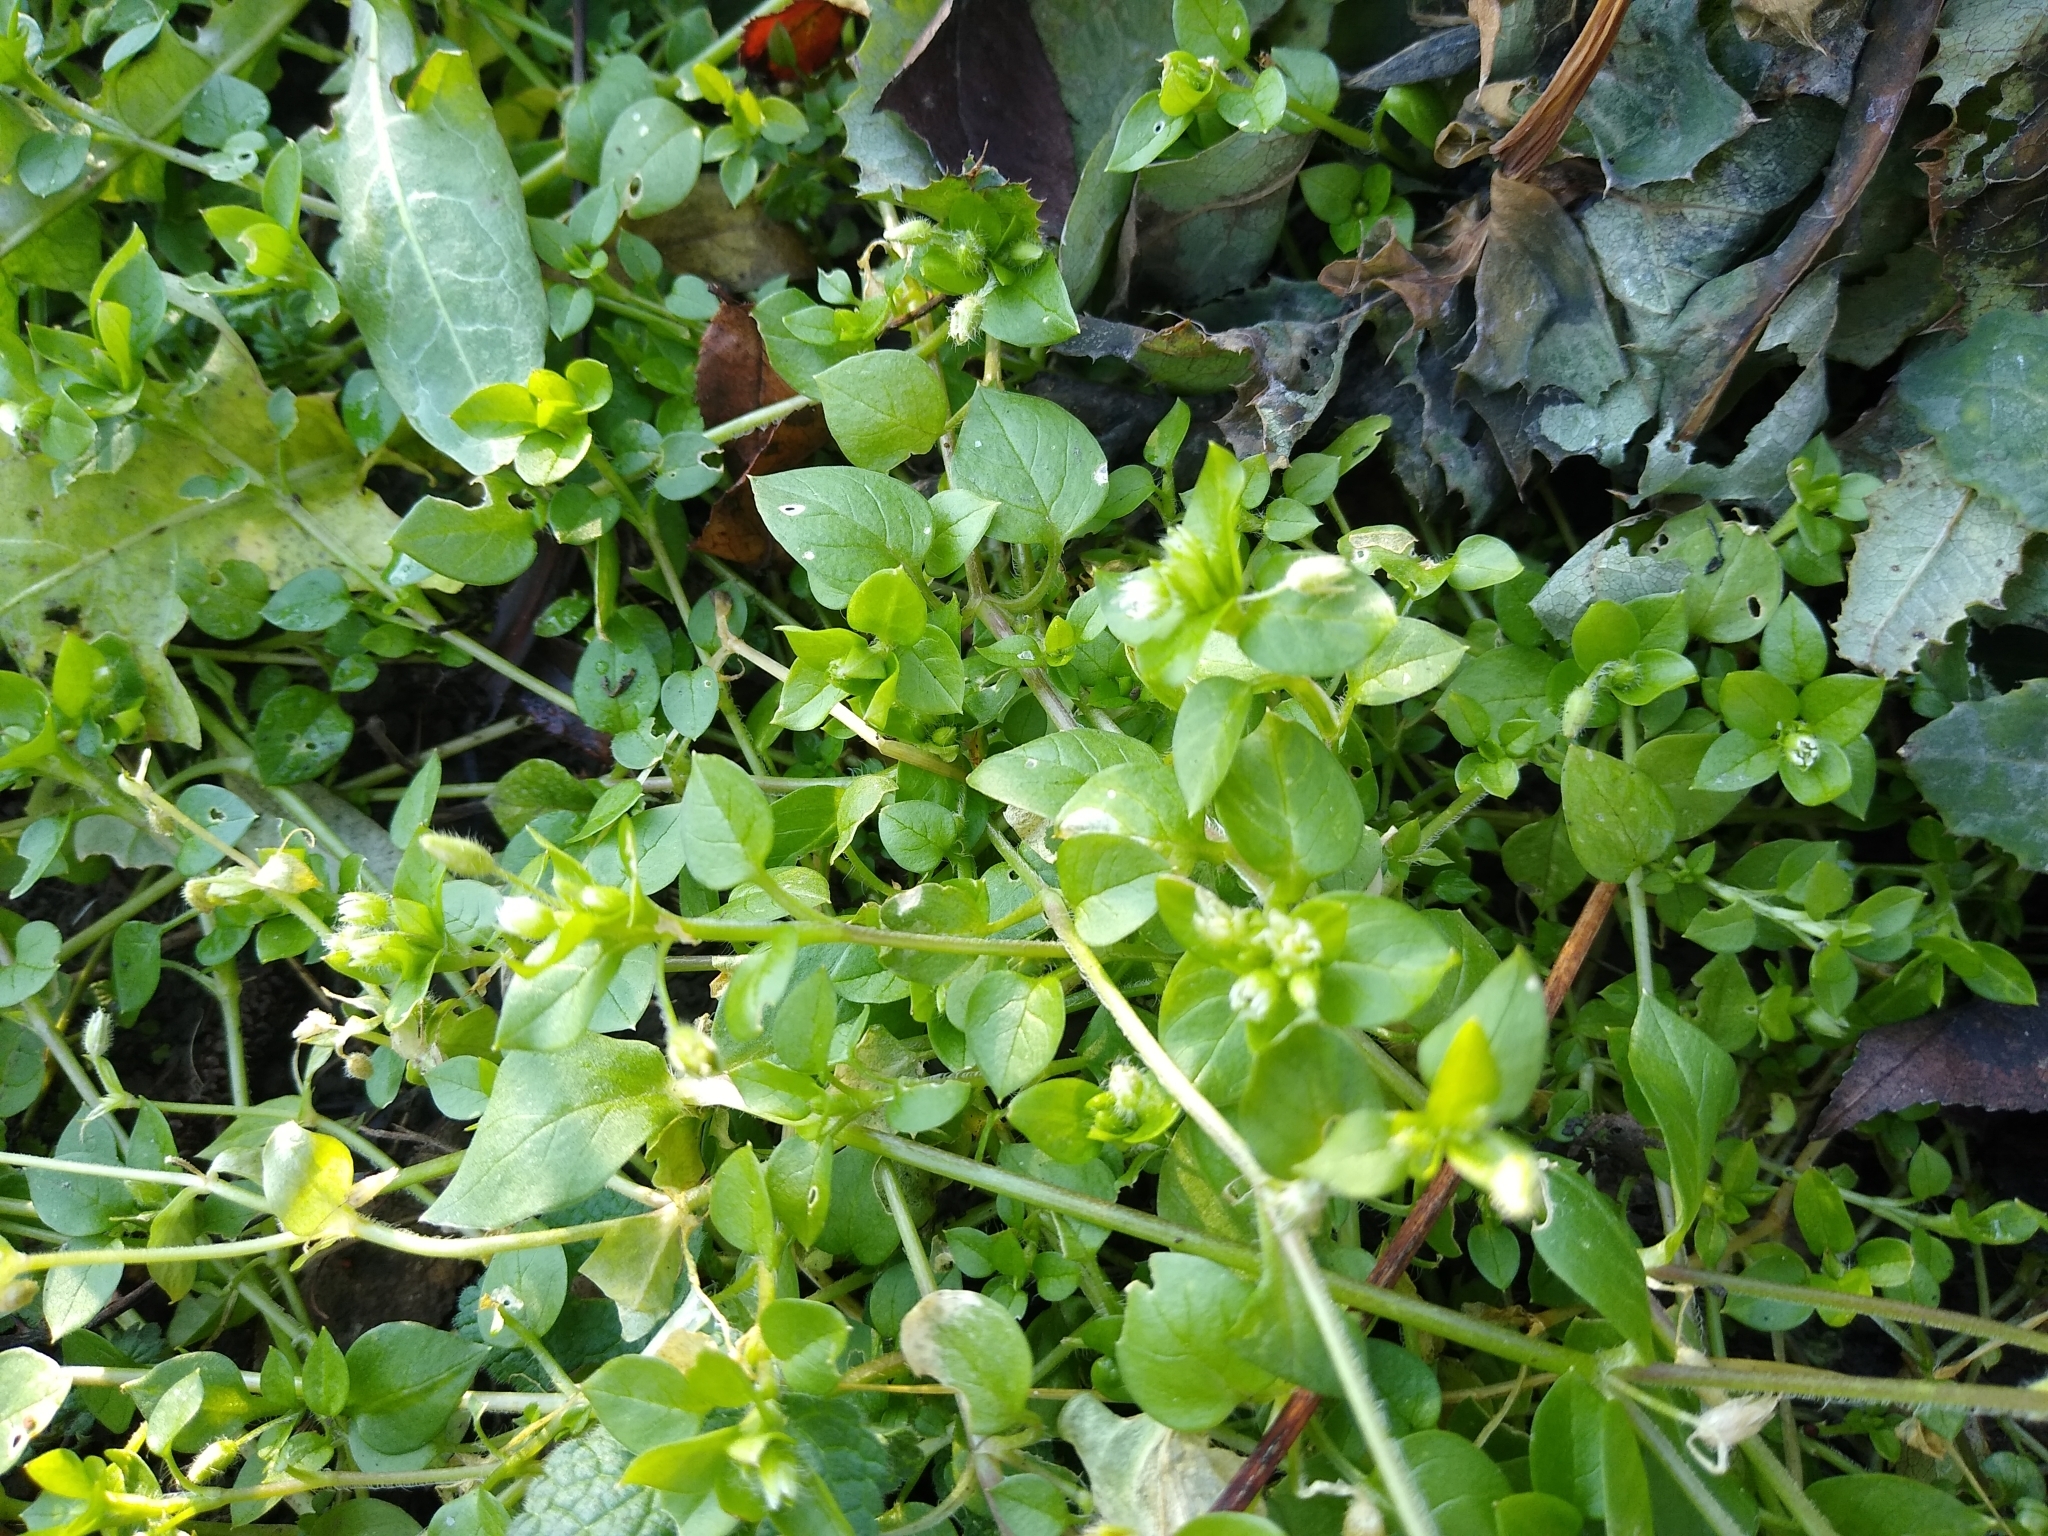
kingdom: Plantae
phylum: Tracheophyta
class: Magnoliopsida
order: Caryophyllales
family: Caryophyllaceae
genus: Stellaria
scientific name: Stellaria media
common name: Common chickweed
